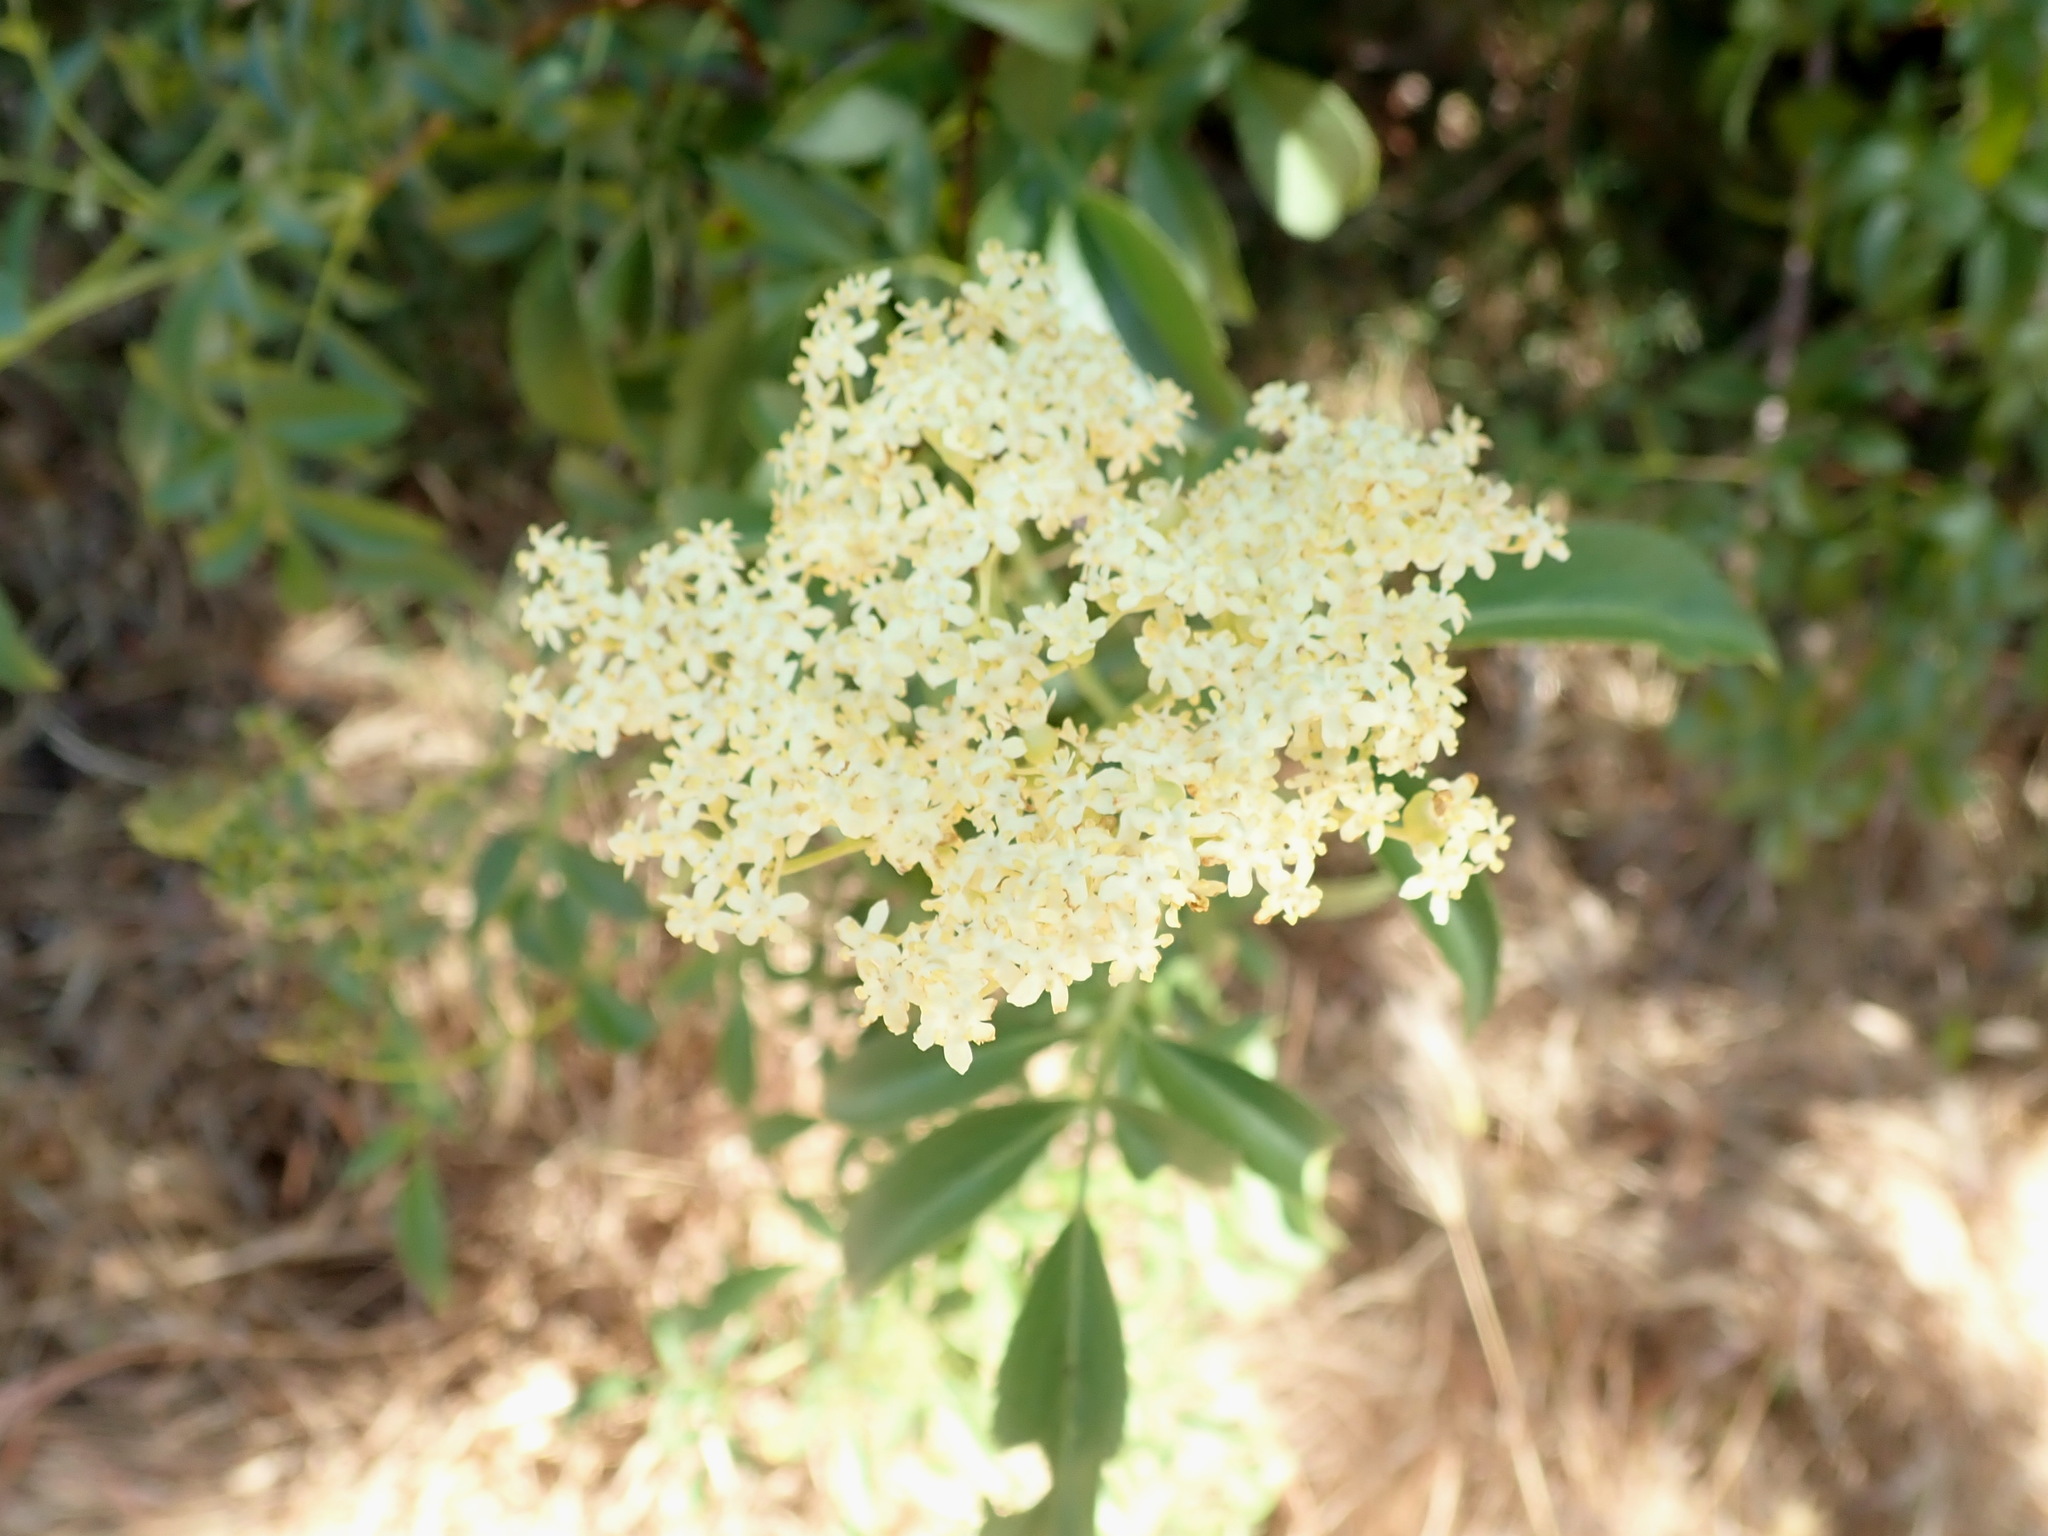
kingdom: Plantae
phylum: Tracheophyta
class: Magnoliopsida
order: Dipsacales
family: Viburnaceae
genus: Sambucus
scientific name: Sambucus cerulea
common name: Blue elder
